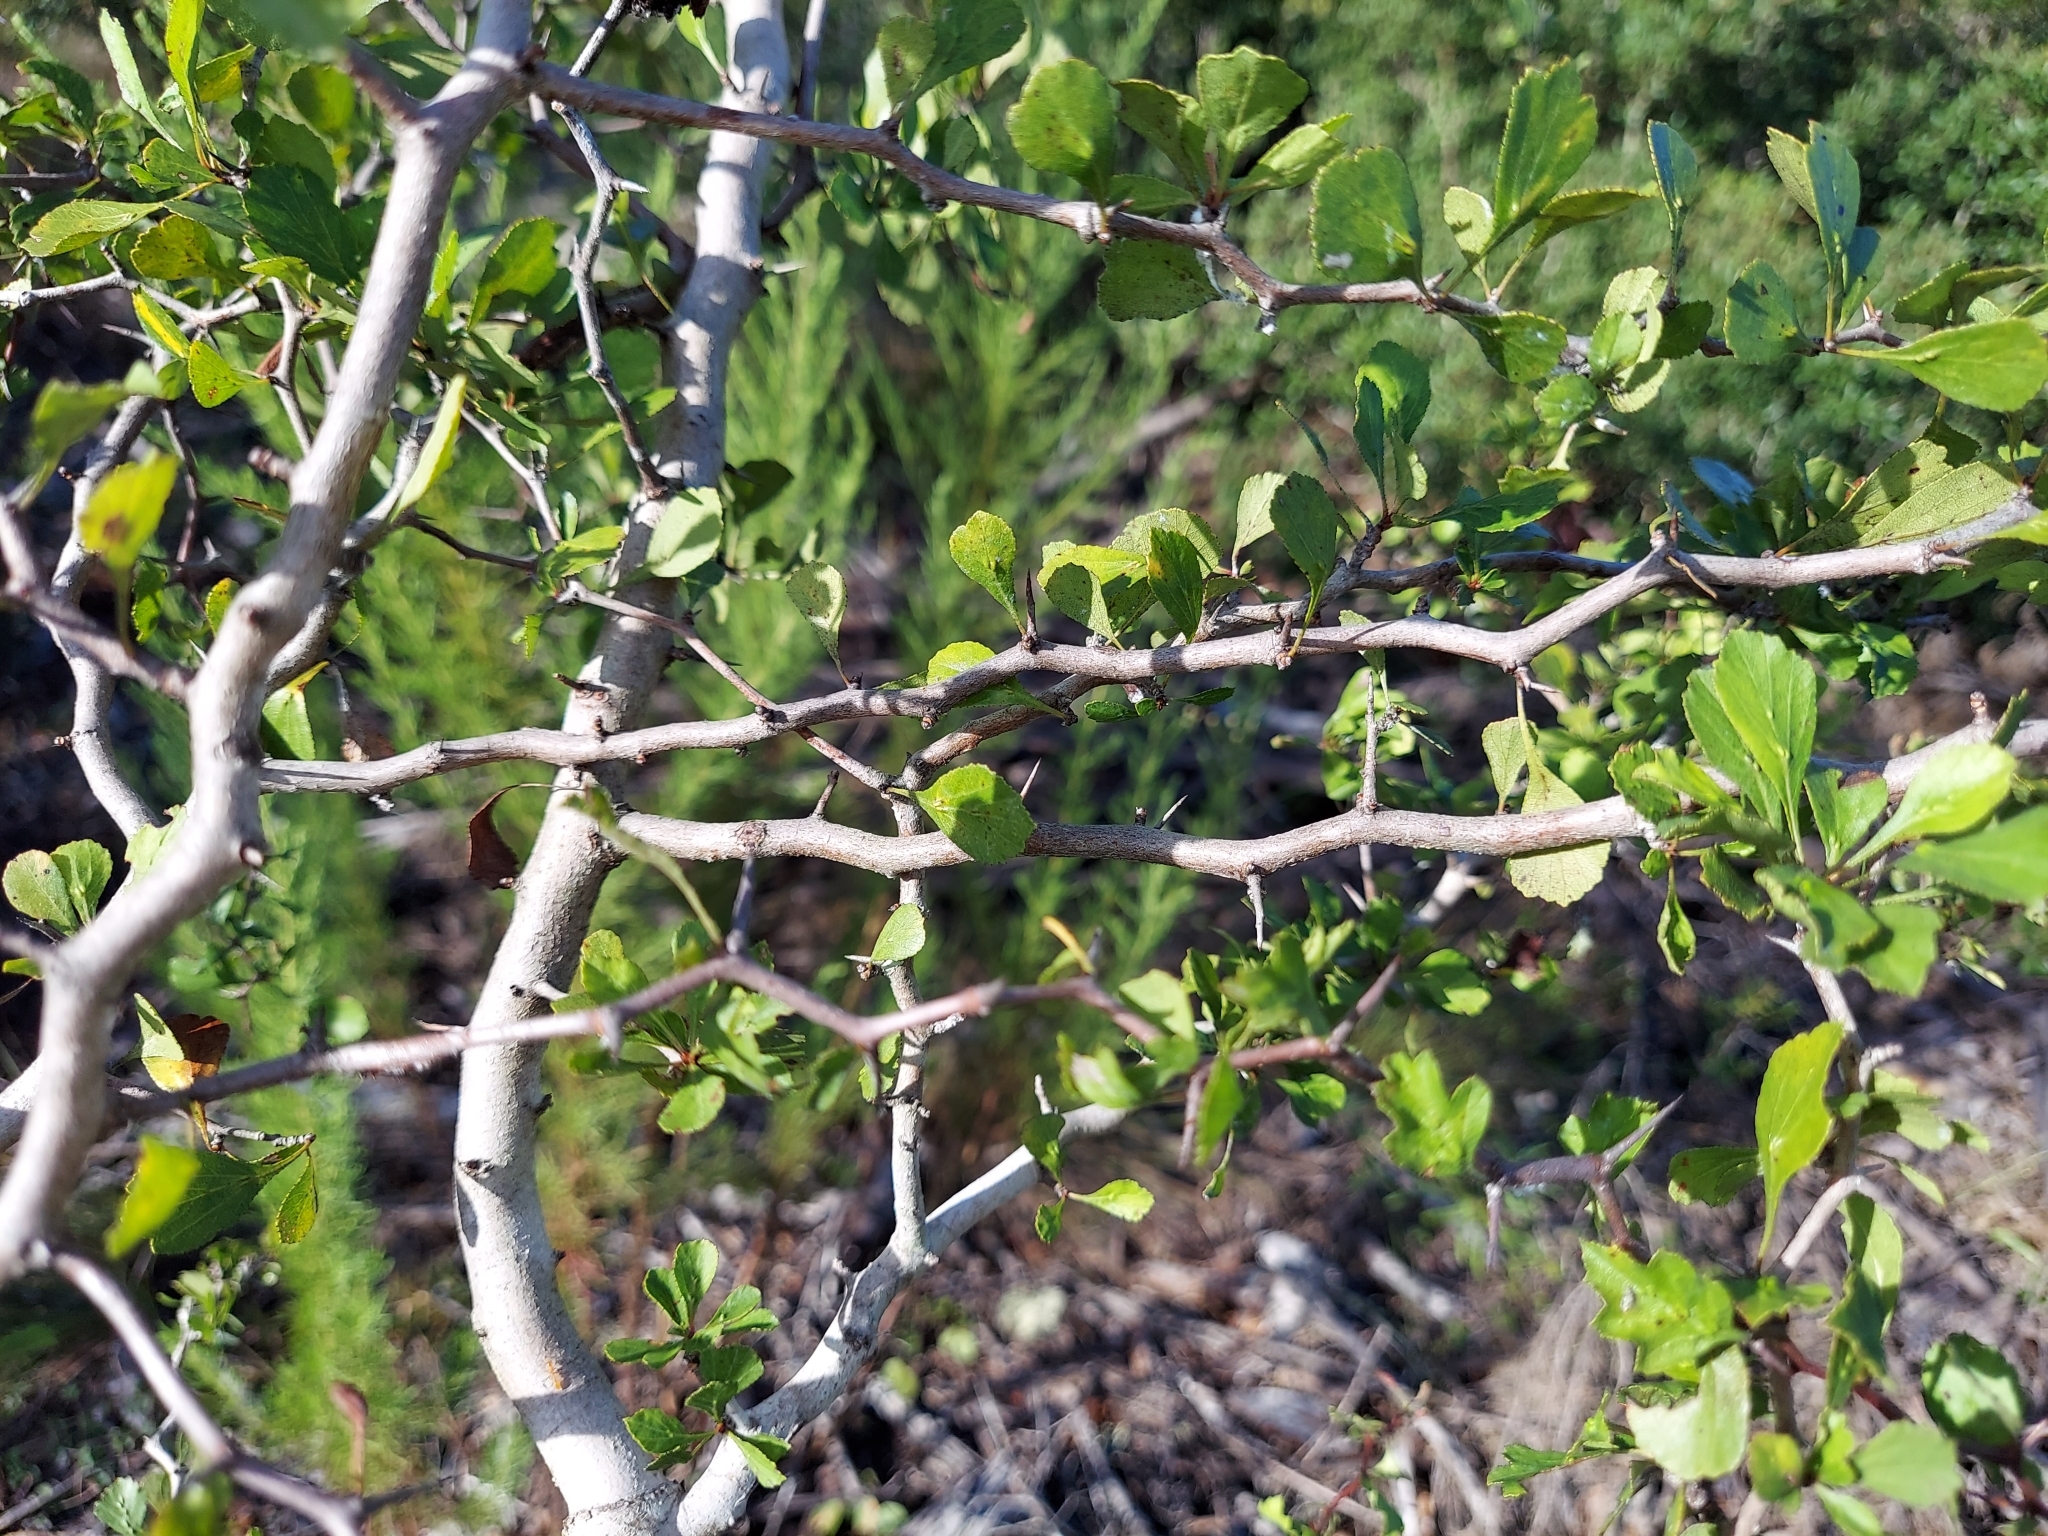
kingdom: Plantae
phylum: Tracheophyta
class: Magnoliopsida
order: Rosales
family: Rosaceae
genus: Crataegus
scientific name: Crataegus flava
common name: Yellow hawthorn
